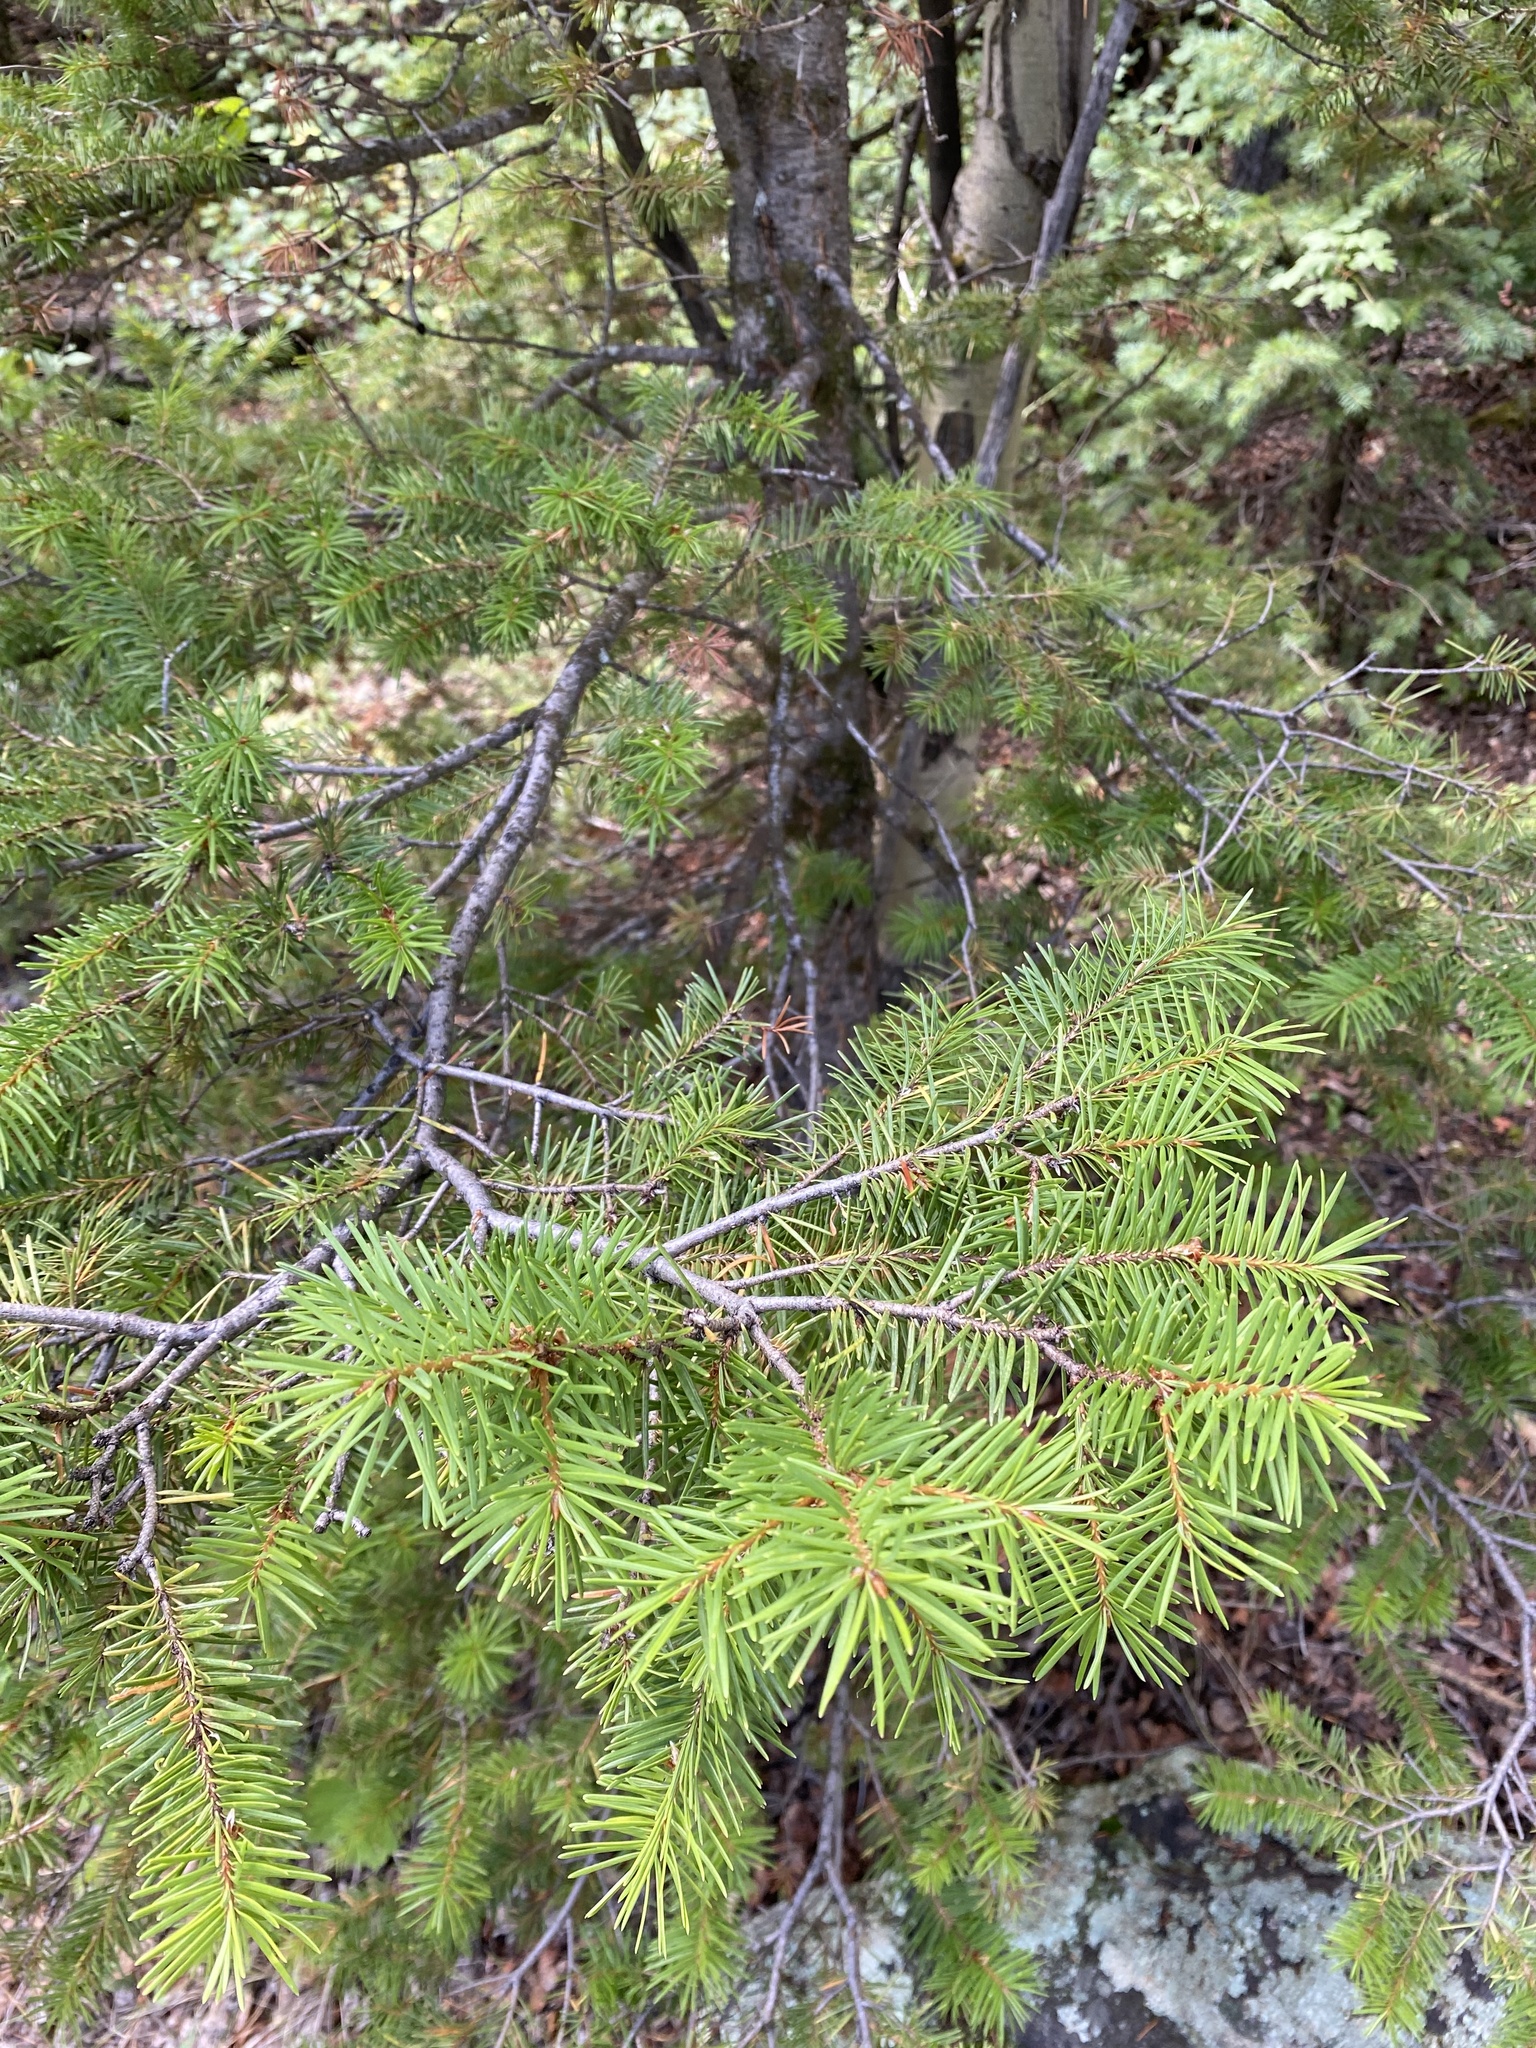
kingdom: Plantae
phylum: Tracheophyta
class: Pinopsida
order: Pinales
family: Pinaceae
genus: Pseudotsuga
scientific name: Pseudotsuga menziesii
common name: Douglas fir
